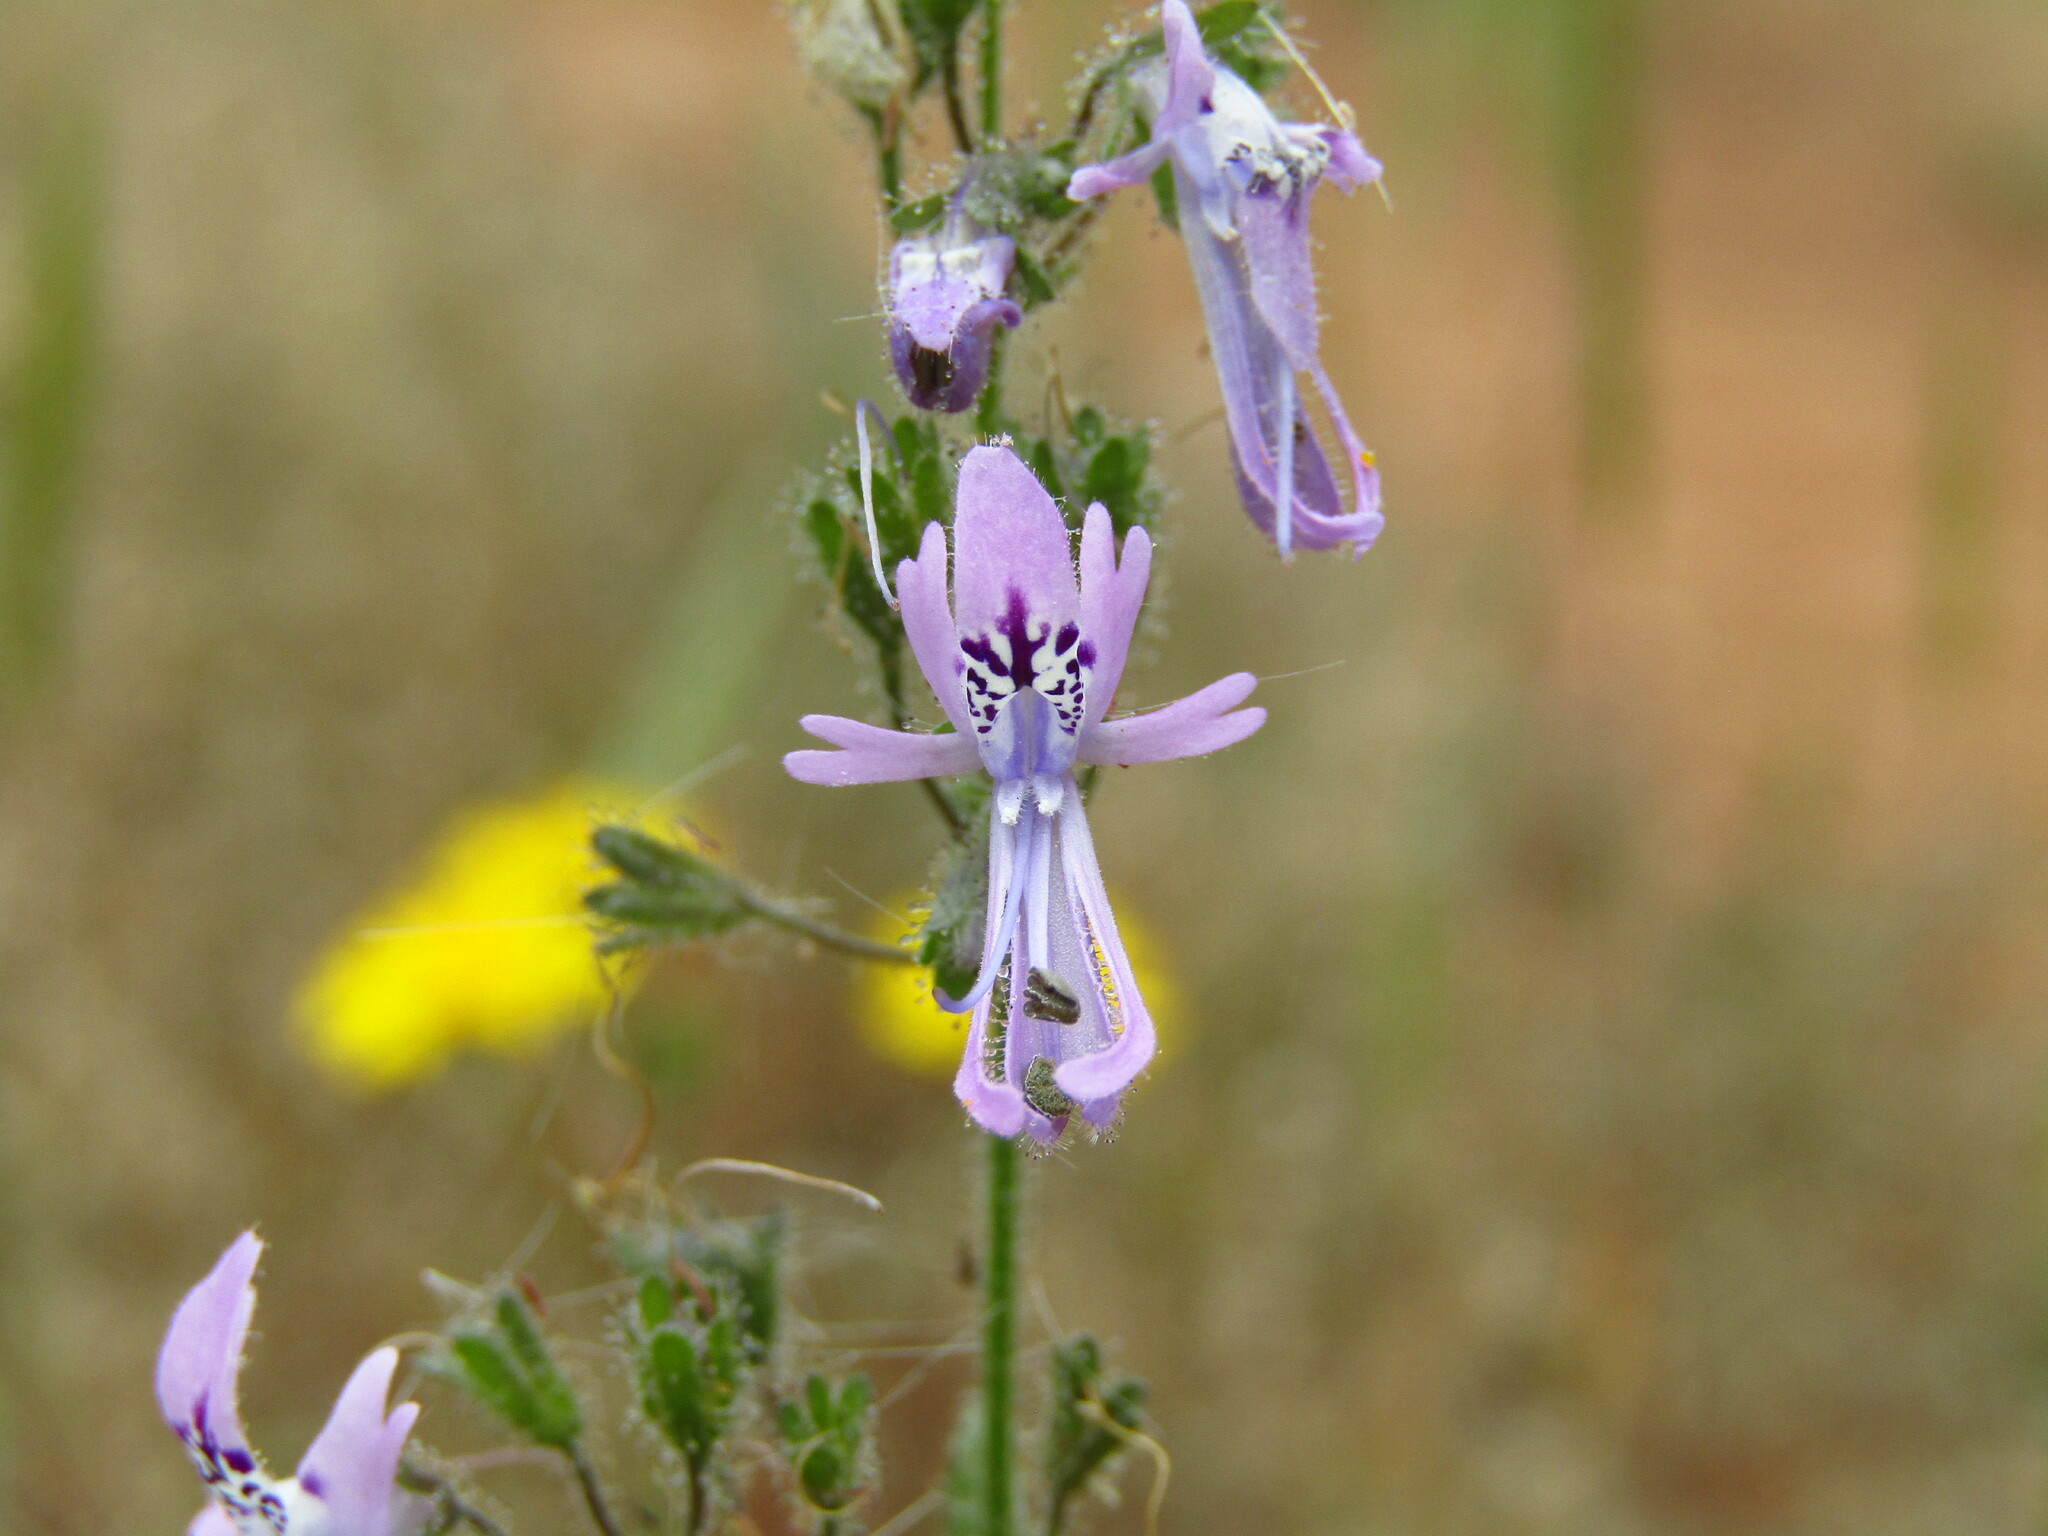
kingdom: Plantae
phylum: Tracheophyta
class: Magnoliopsida
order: Solanales
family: Solanaceae
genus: Schizanthus
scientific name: Schizanthus pinnatus
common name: Poor-man's-orchid
